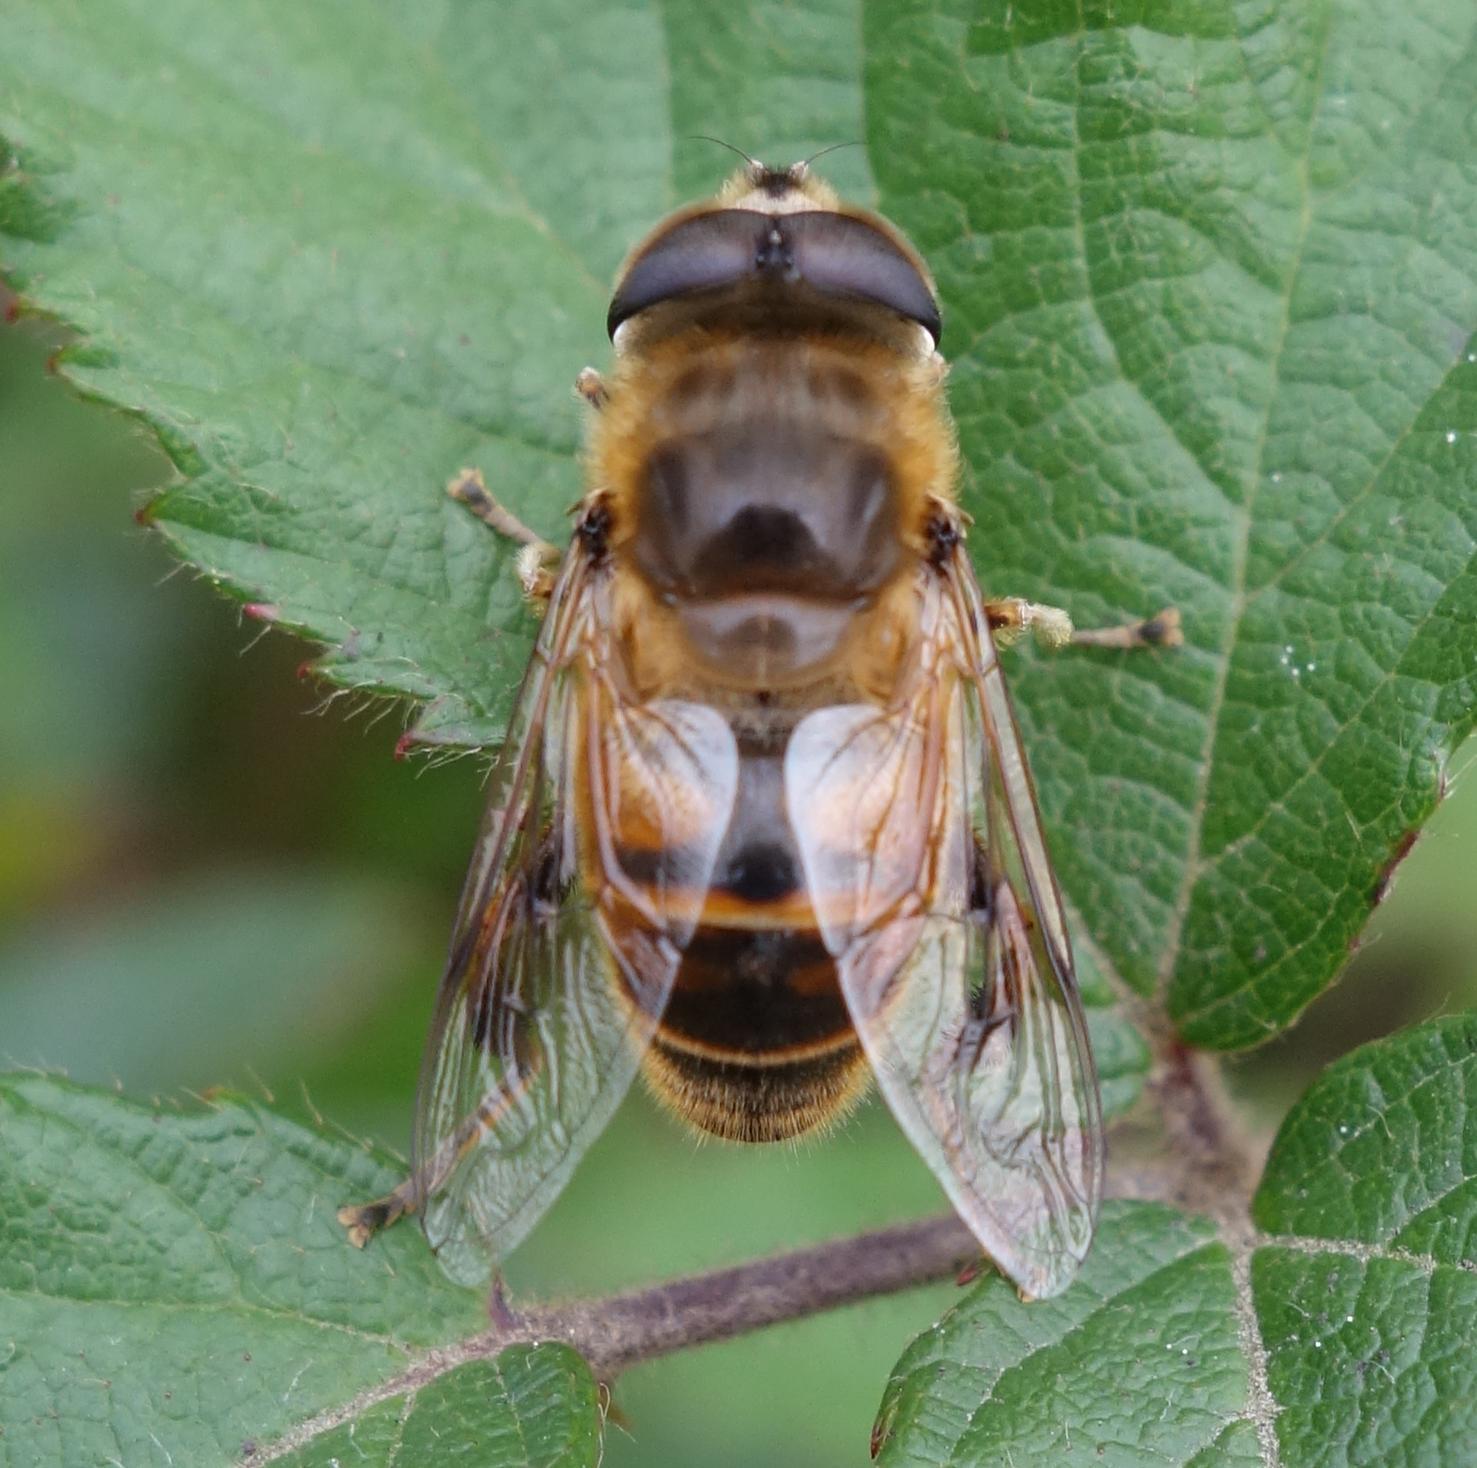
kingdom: Animalia
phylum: Arthropoda
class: Insecta
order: Diptera
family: Syrphidae
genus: Eristalis
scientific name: Eristalis tenax
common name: Drone fly
